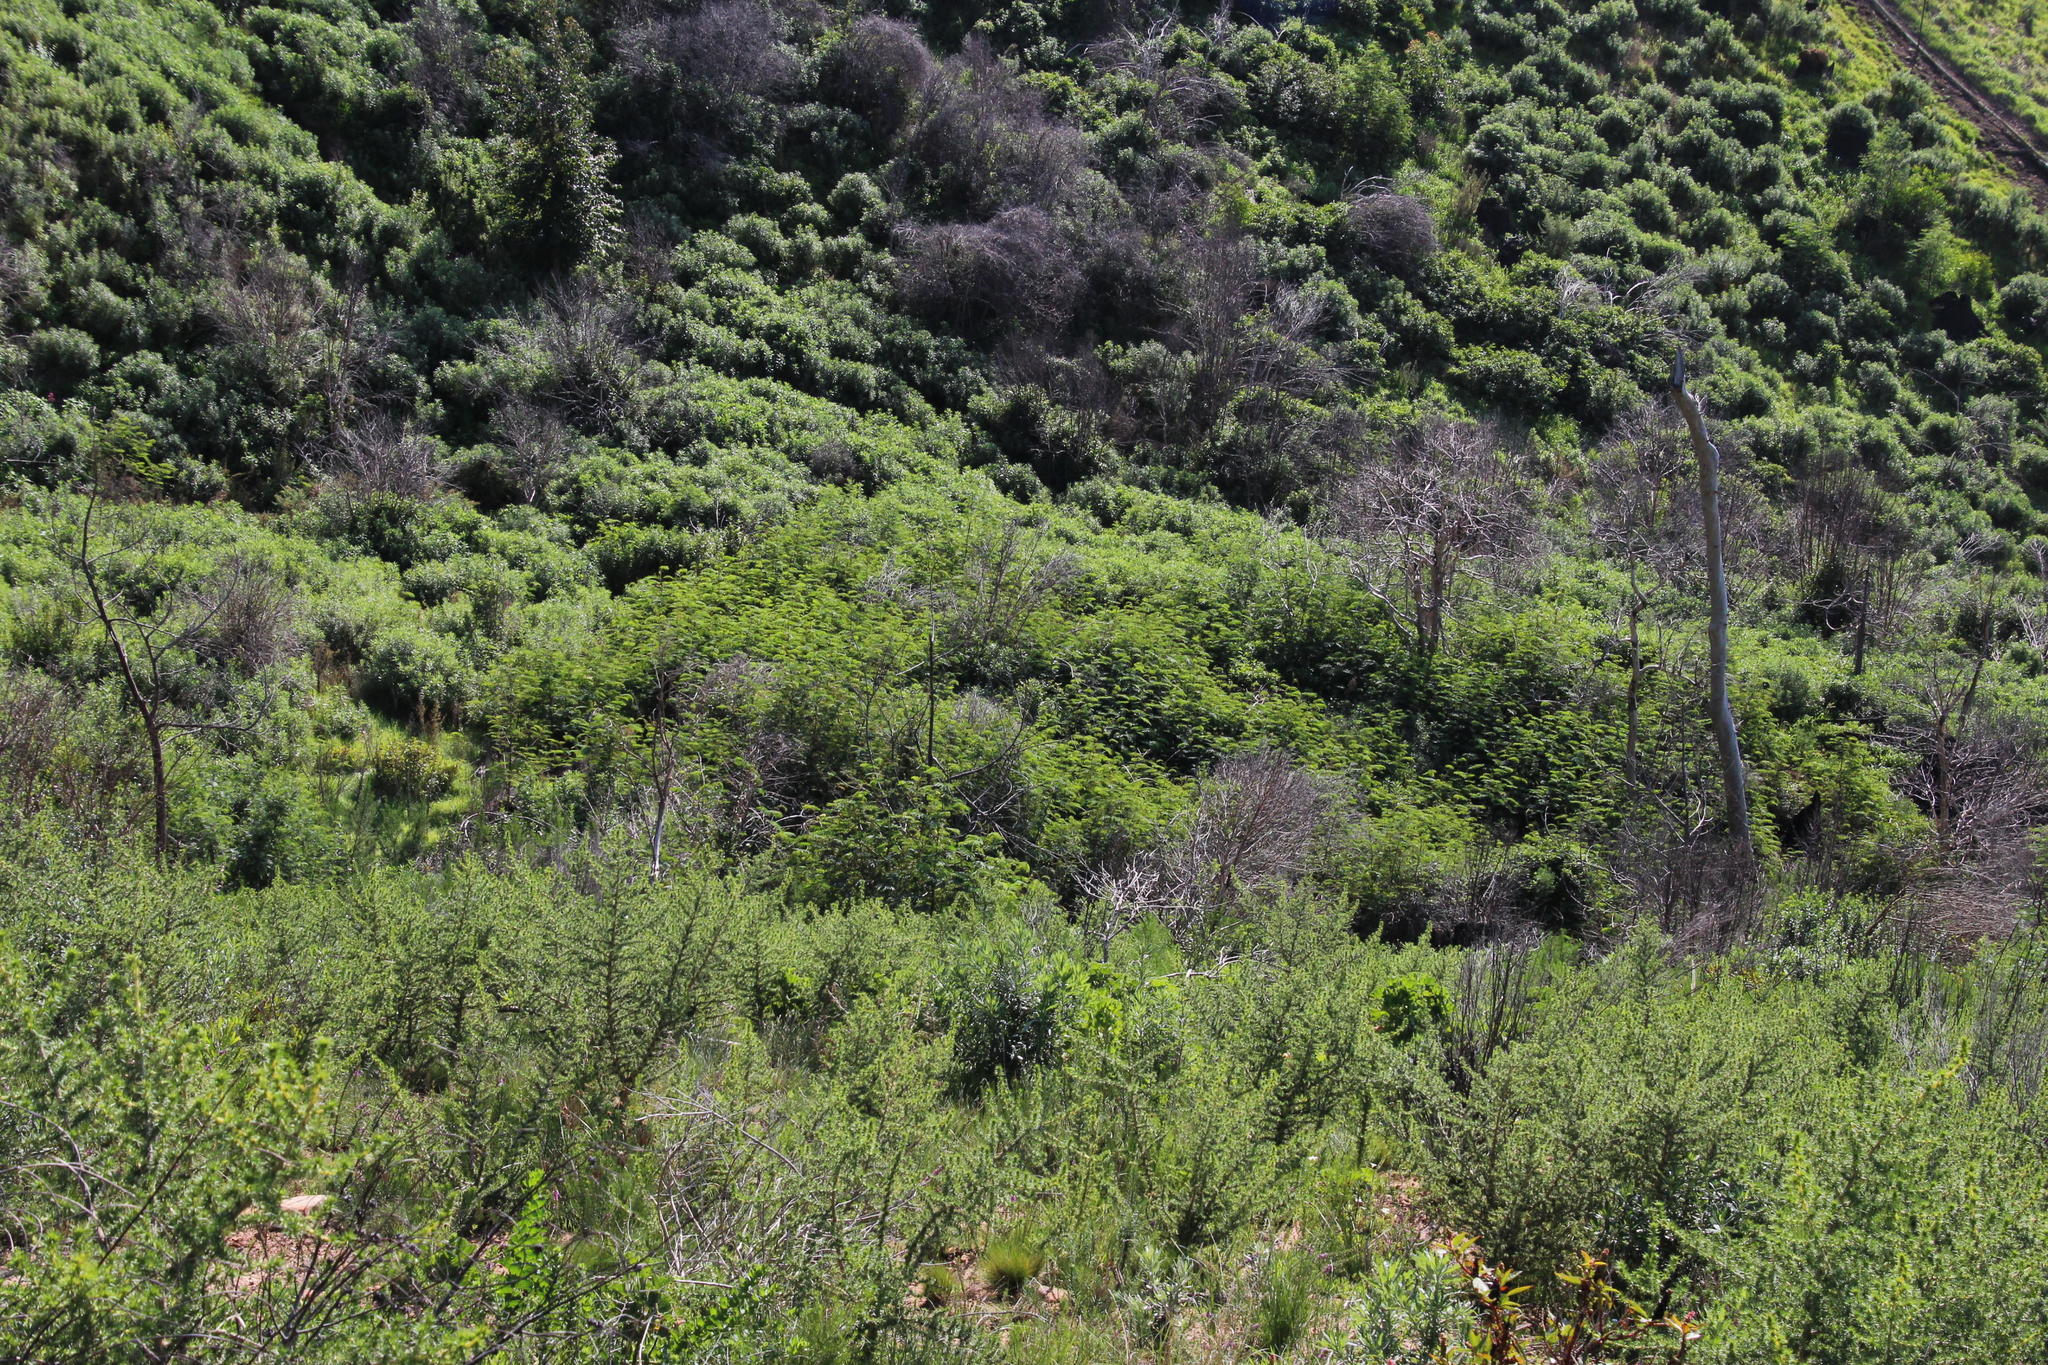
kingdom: Plantae
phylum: Tracheophyta
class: Magnoliopsida
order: Fabales
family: Fabaceae
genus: Paraserianthes
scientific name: Paraserianthes lophantha
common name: Plume albizia
